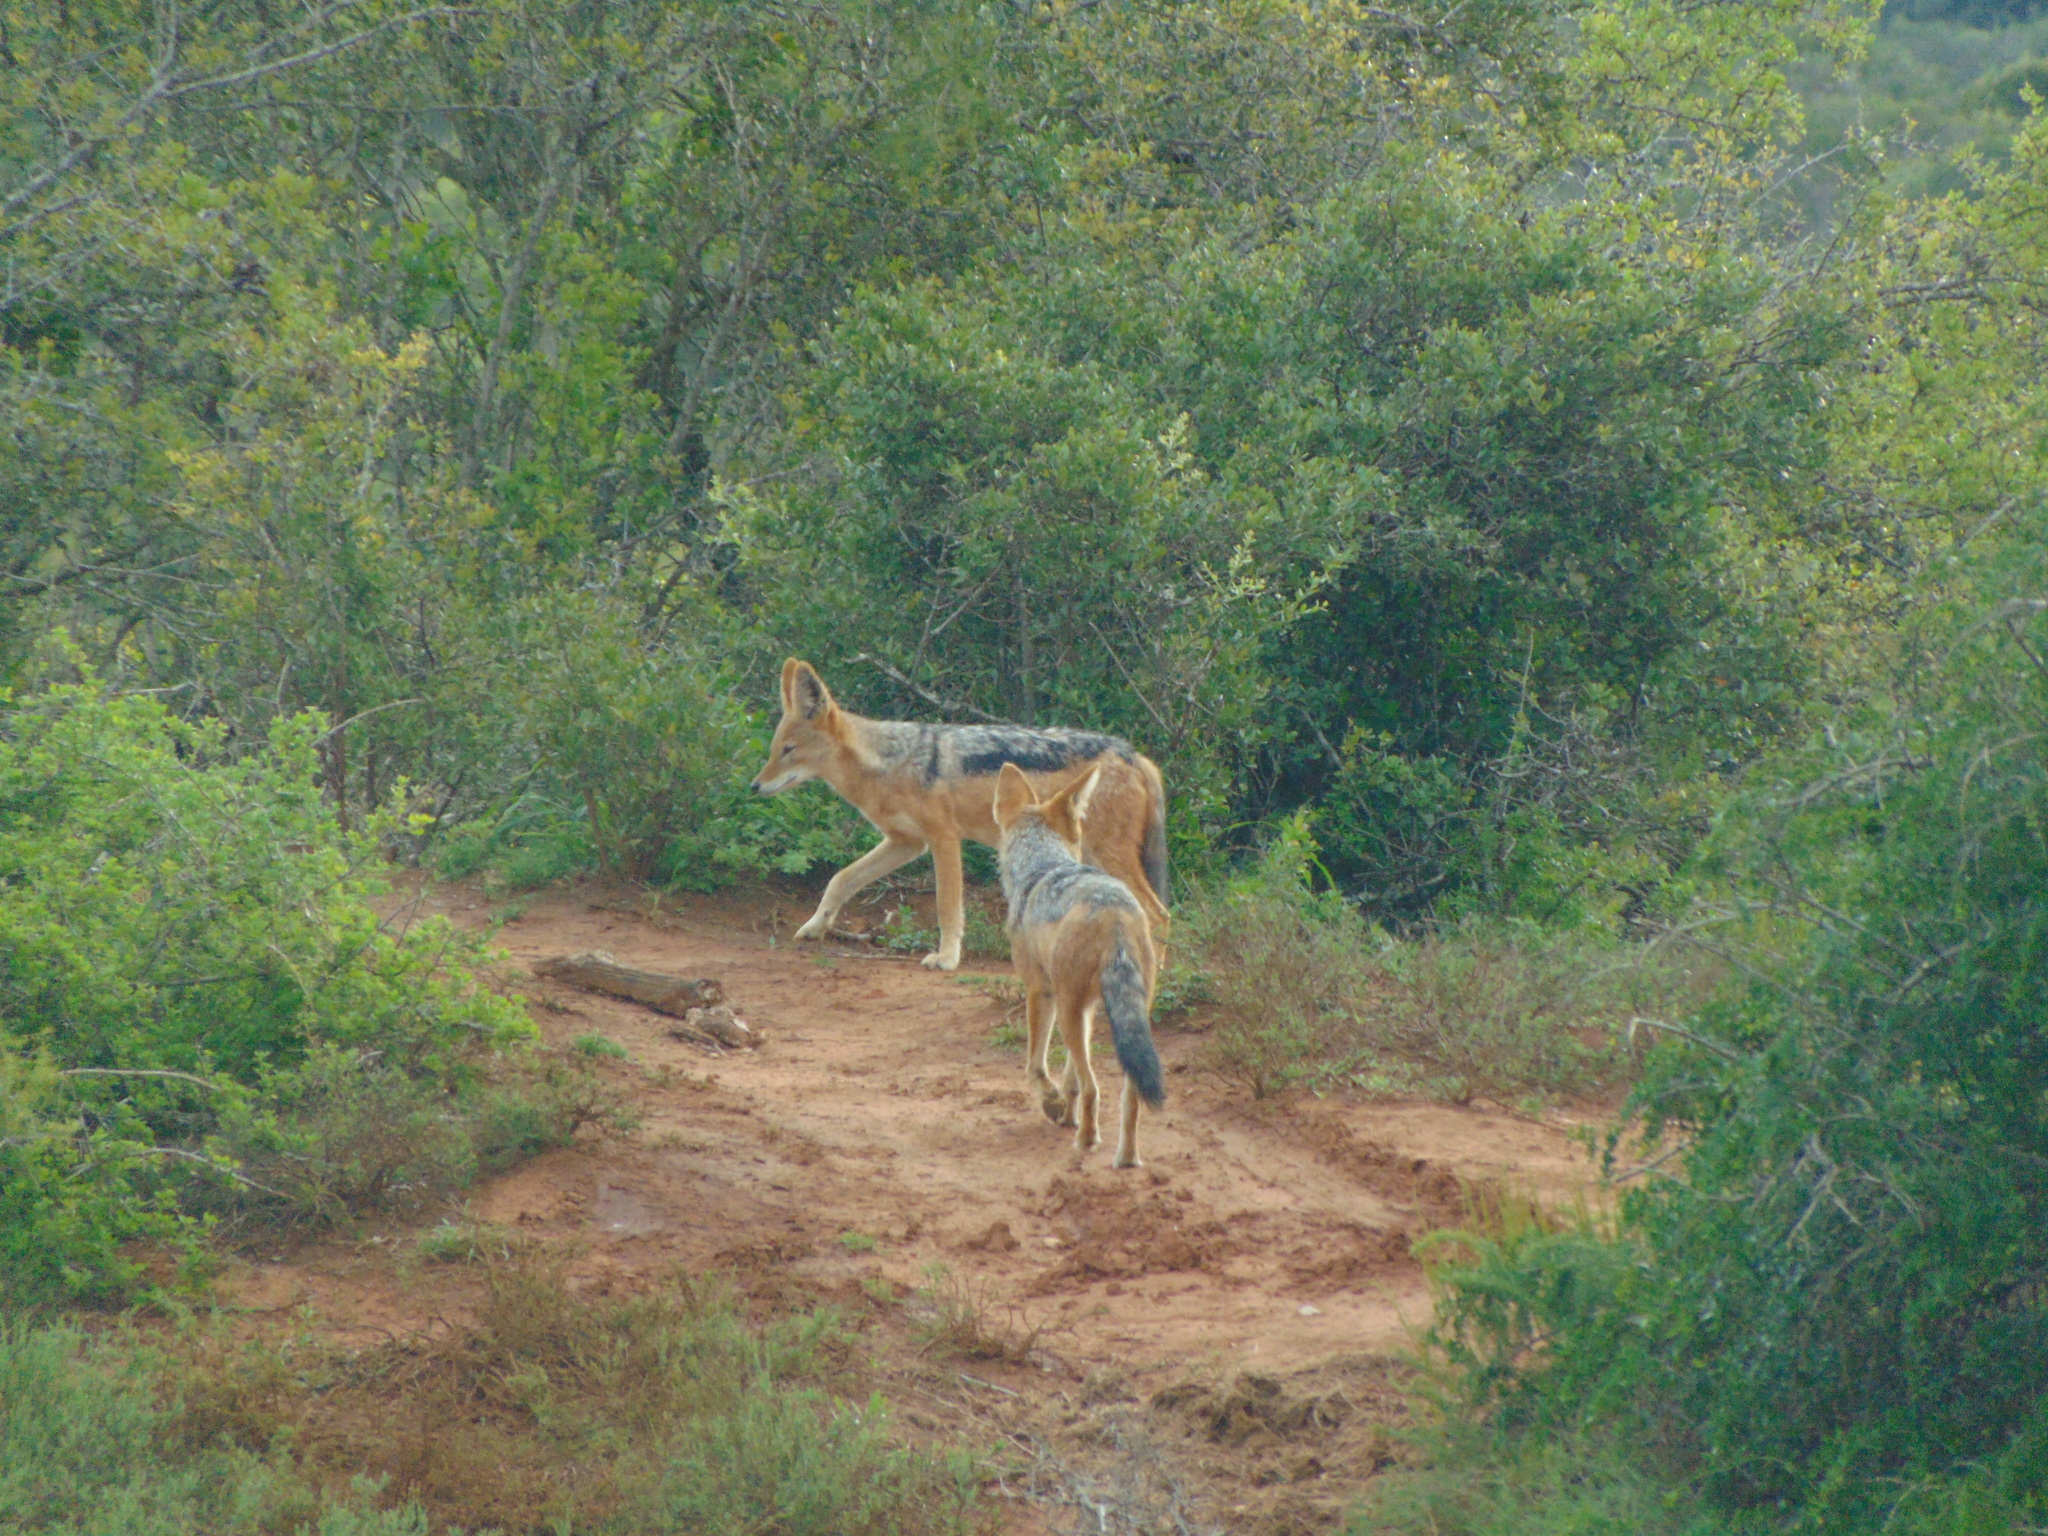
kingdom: Animalia
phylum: Chordata
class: Mammalia
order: Carnivora
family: Canidae
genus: Lupulella
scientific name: Lupulella
